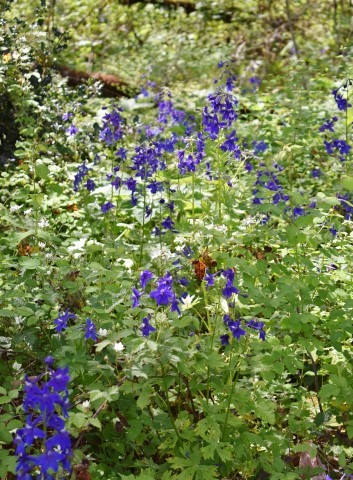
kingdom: Plantae
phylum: Tracheophyta
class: Magnoliopsida
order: Ranunculales
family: Ranunculaceae
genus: Delphinium
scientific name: Delphinium trolliifolium
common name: Cow-poison
